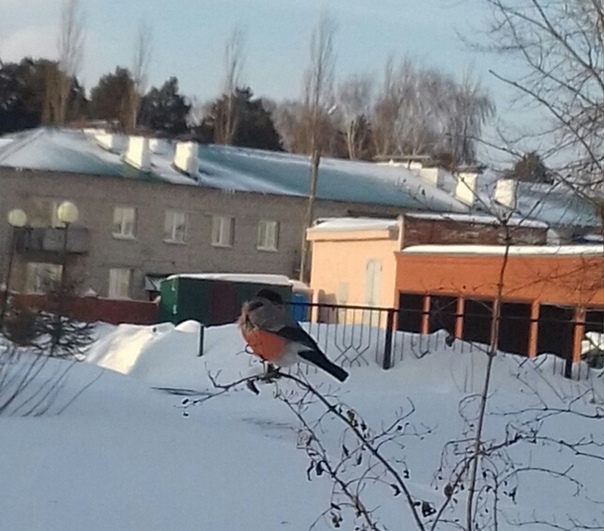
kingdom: Animalia
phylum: Chordata
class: Aves
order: Passeriformes
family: Fringillidae
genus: Pyrrhula
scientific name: Pyrrhula pyrrhula
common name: Eurasian bullfinch
